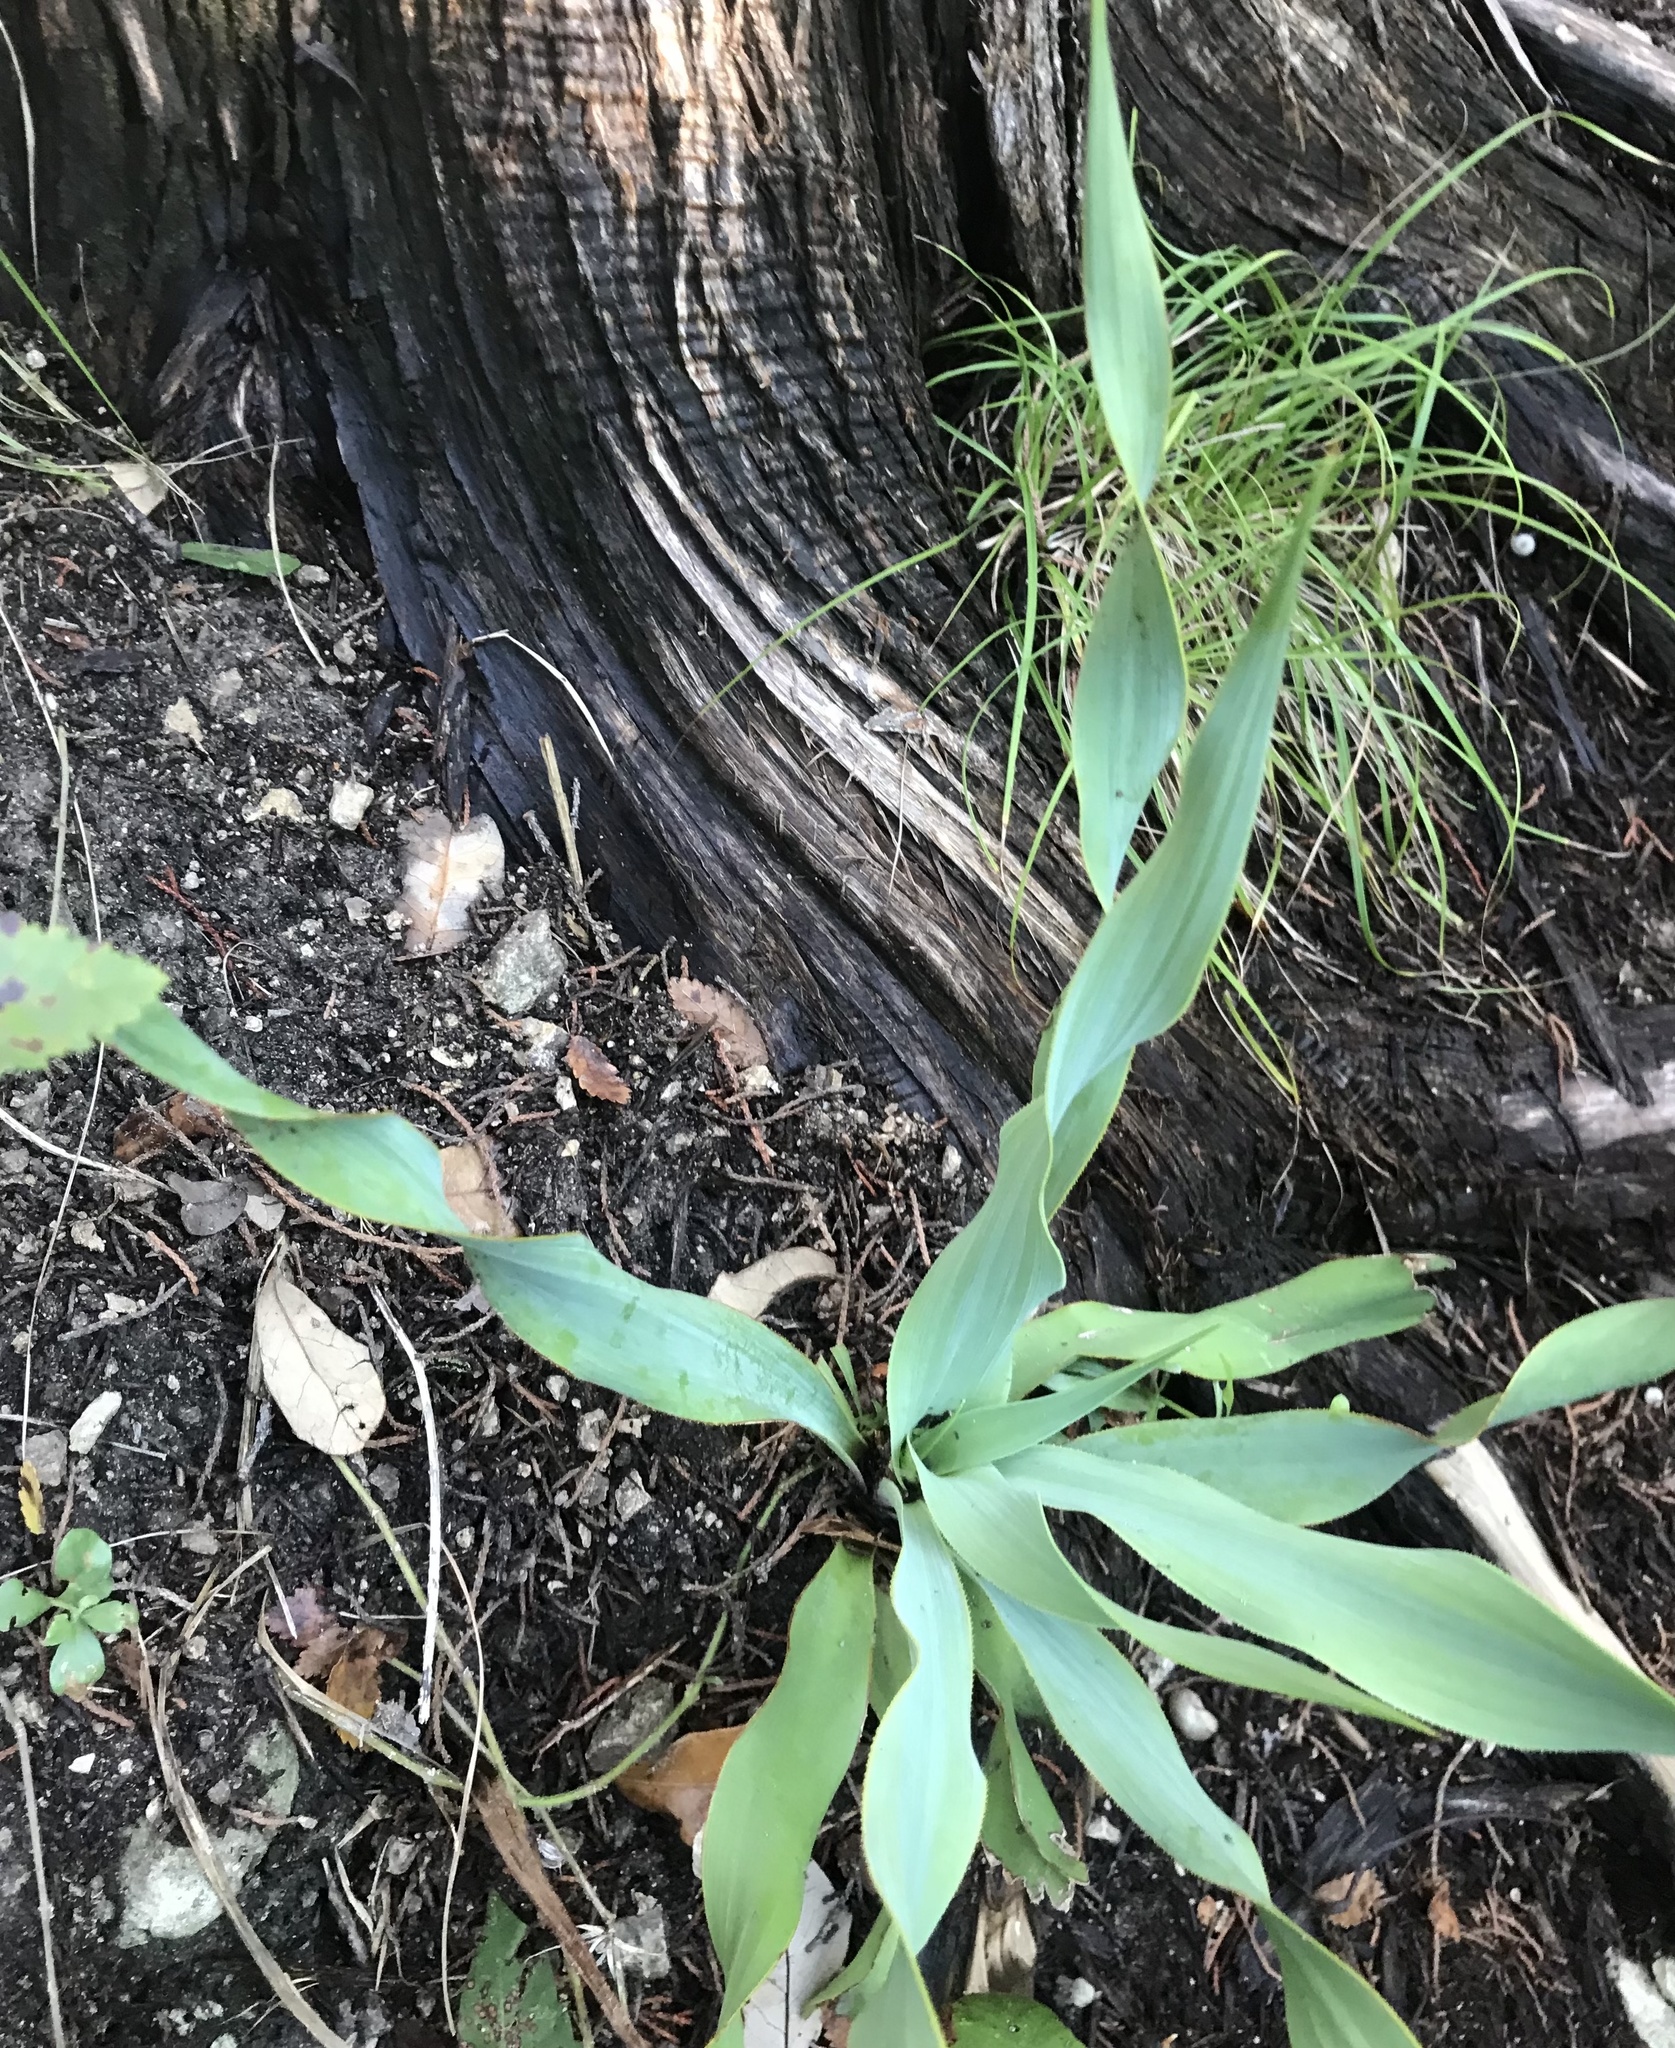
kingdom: Plantae
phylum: Tracheophyta
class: Liliopsida
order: Asparagales
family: Asparagaceae
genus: Yucca
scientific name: Yucca rupicola
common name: Twisted-leaf spanish-dagger
